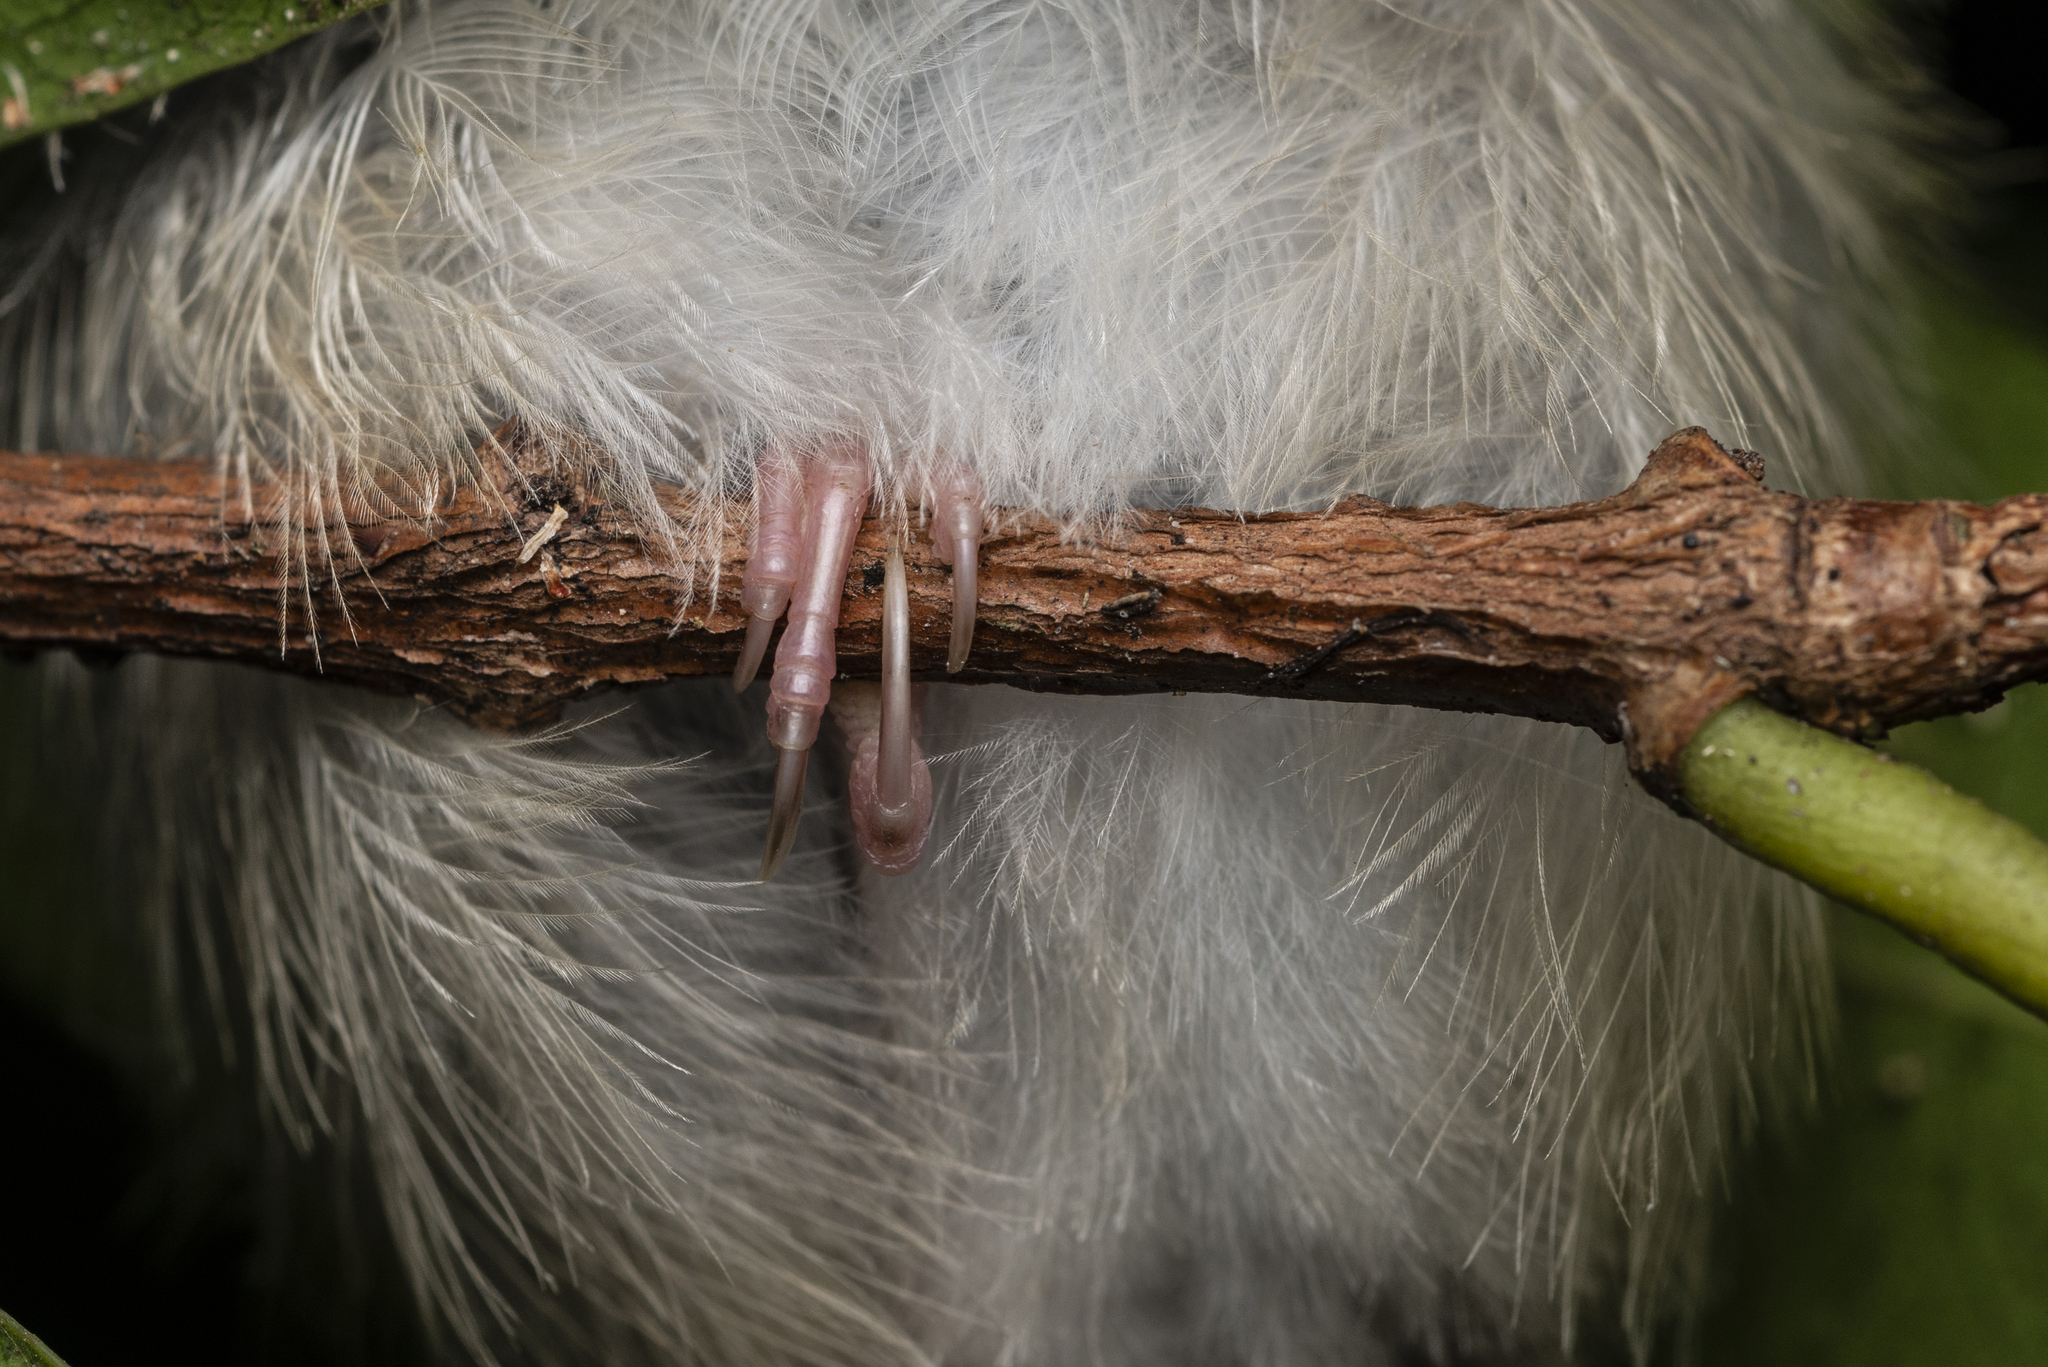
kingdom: Animalia
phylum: Chordata
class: Aves
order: Passeriformes
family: Cisticolidae
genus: Orthotomus
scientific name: Orthotomus sutorius
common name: Common tailorbird
